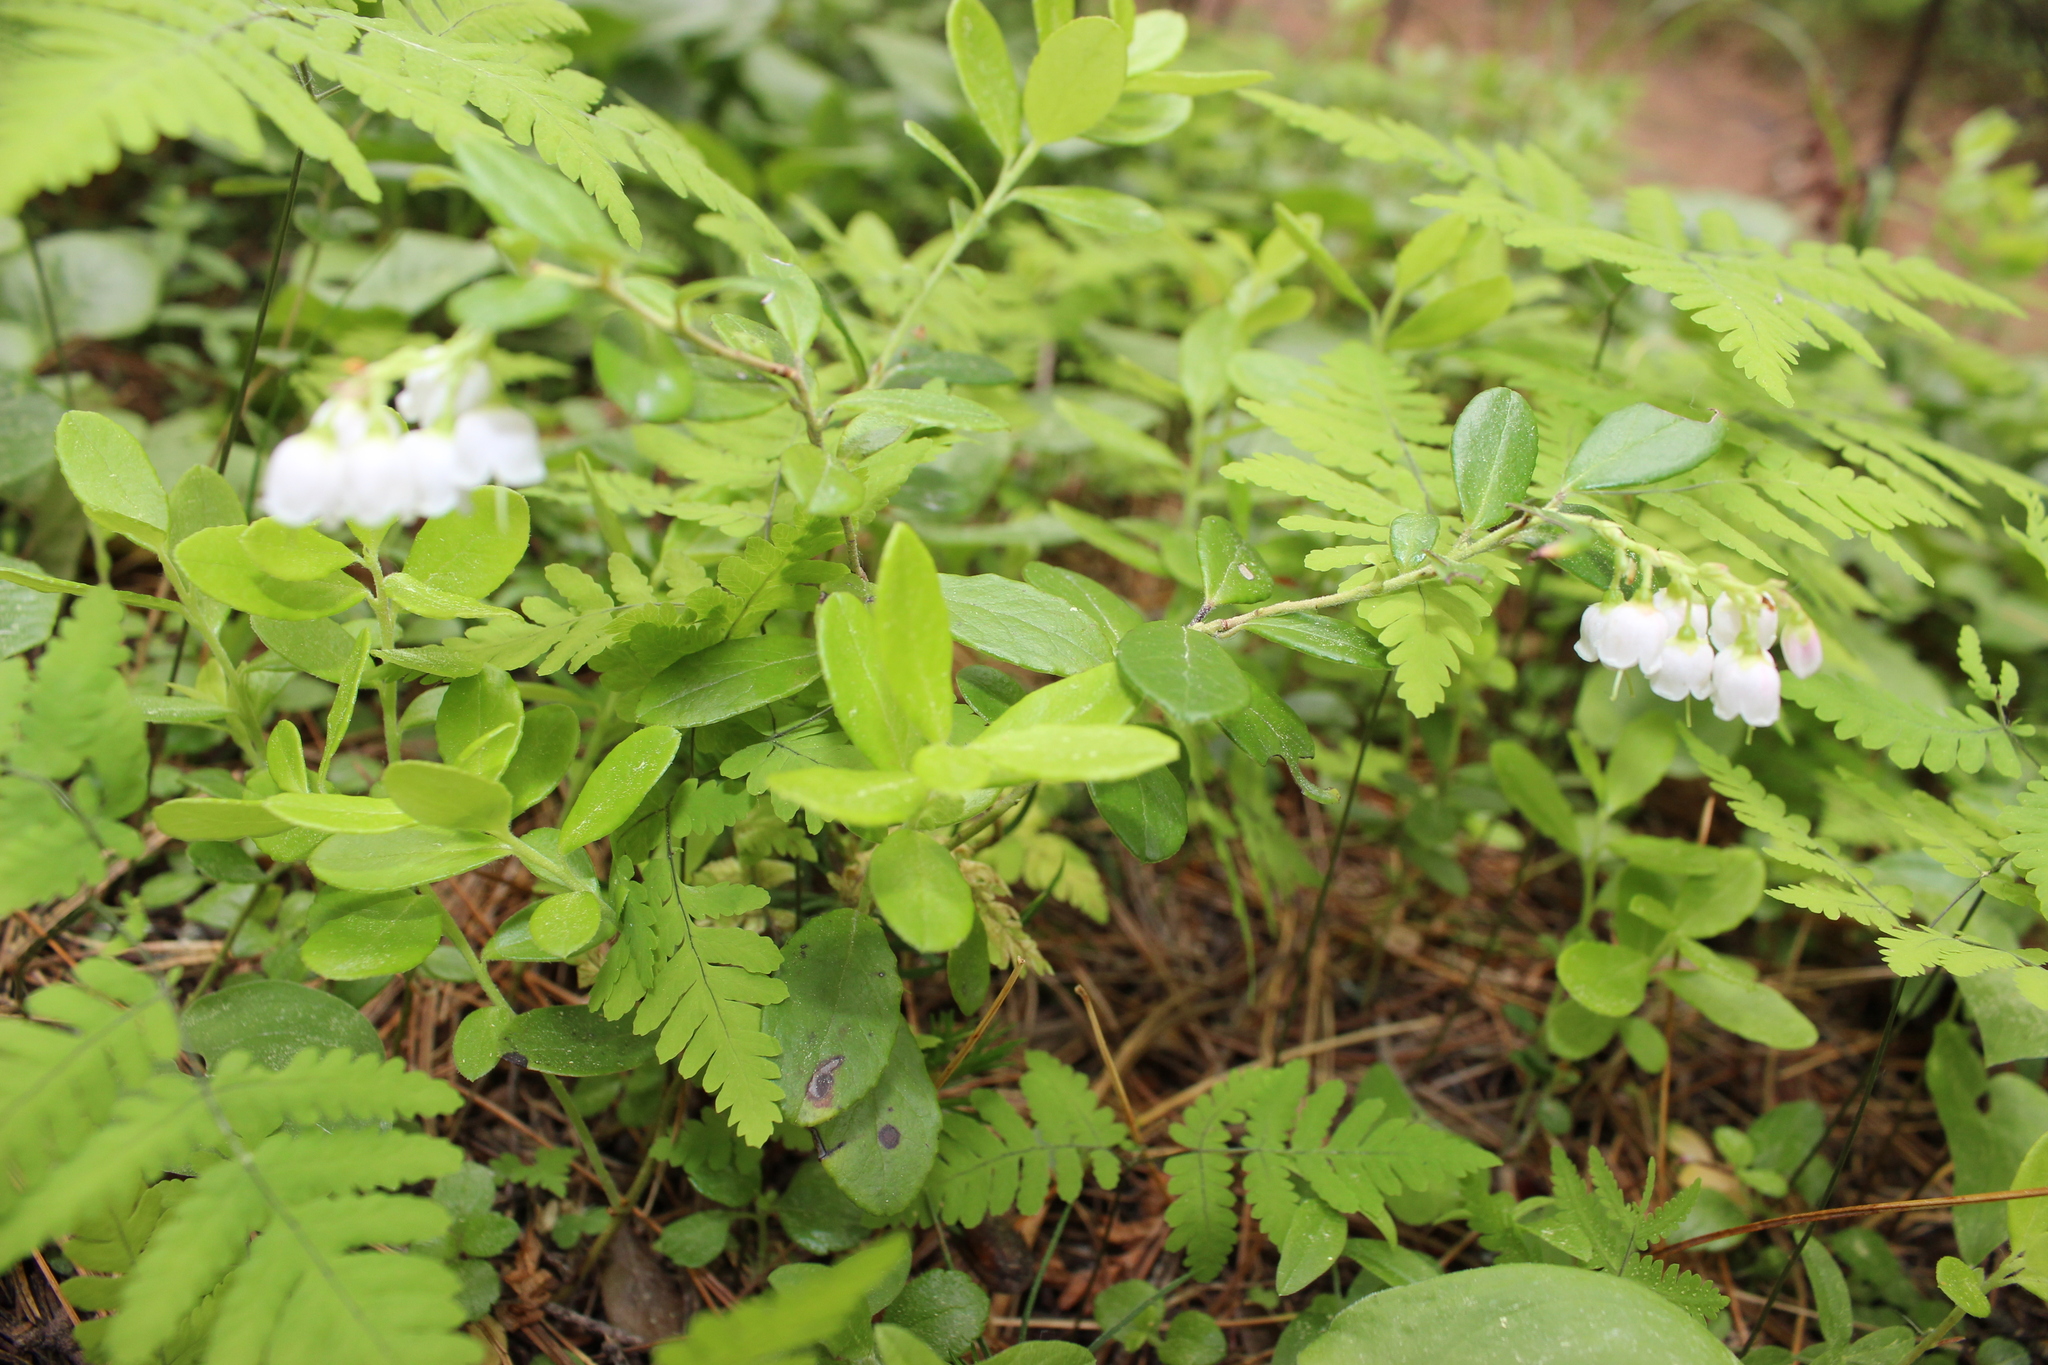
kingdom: Plantae
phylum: Tracheophyta
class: Magnoliopsida
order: Ericales
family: Ericaceae
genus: Vaccinium
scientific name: Vaccinium vitis-idaea
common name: Cowberry
